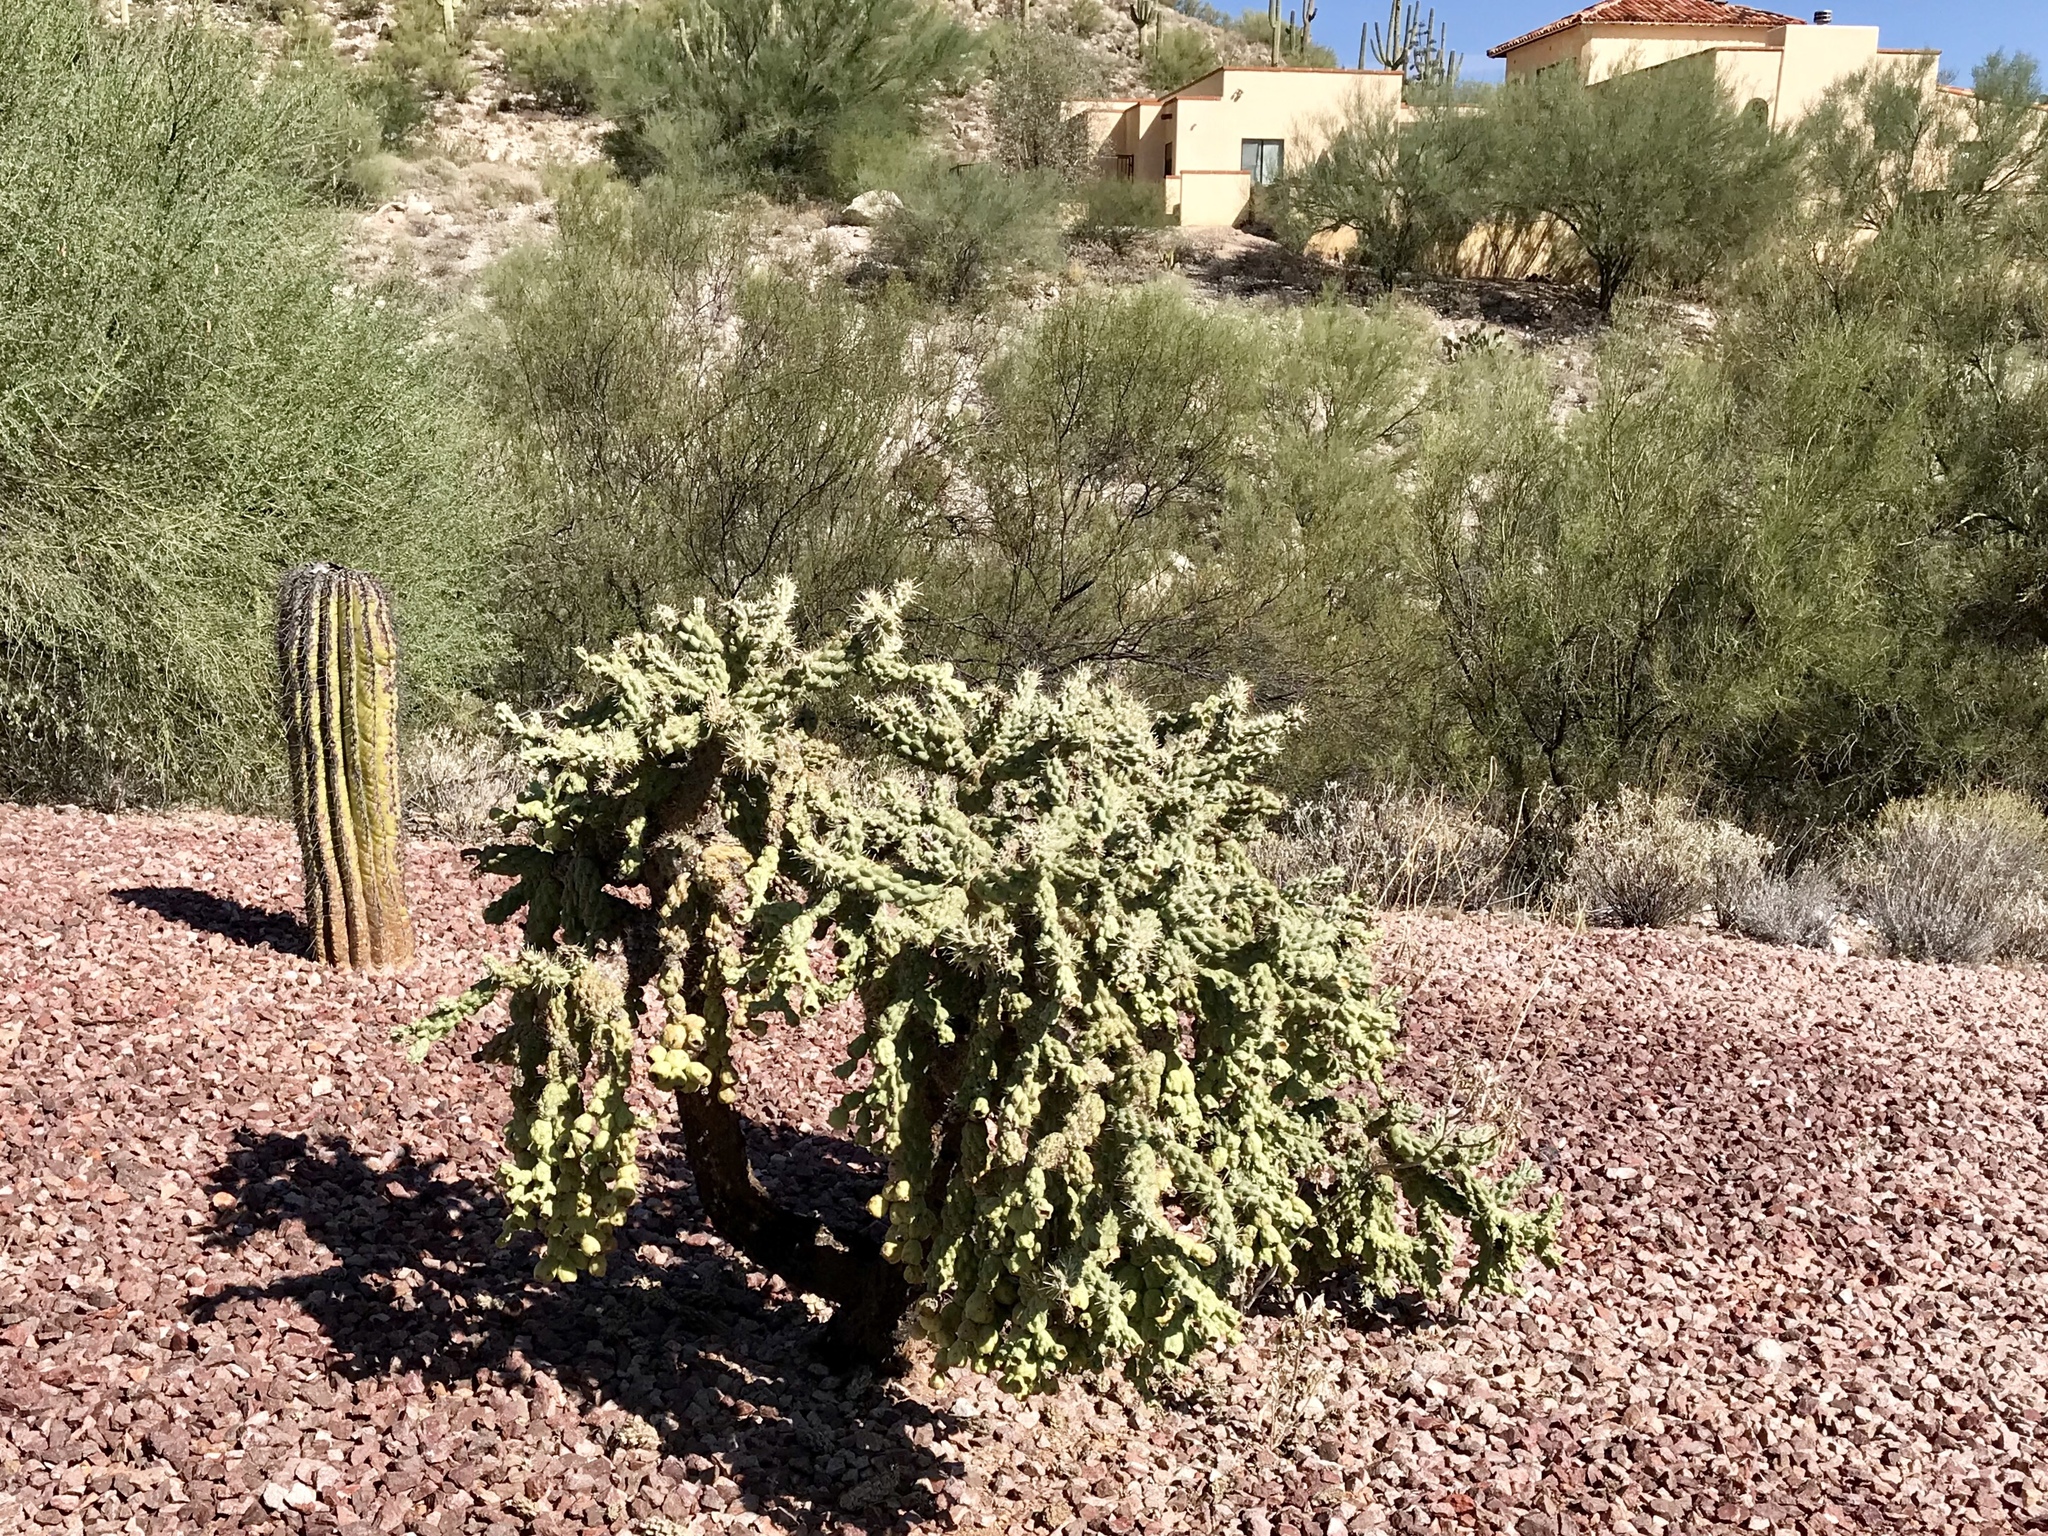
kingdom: Plantae
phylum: Tracheophyta
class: Magnoliopsida
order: Caryophyllales
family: Cactaceae
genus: Cylindropuntia
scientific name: Cylindropuntia fulgida
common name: Jumping cholla
